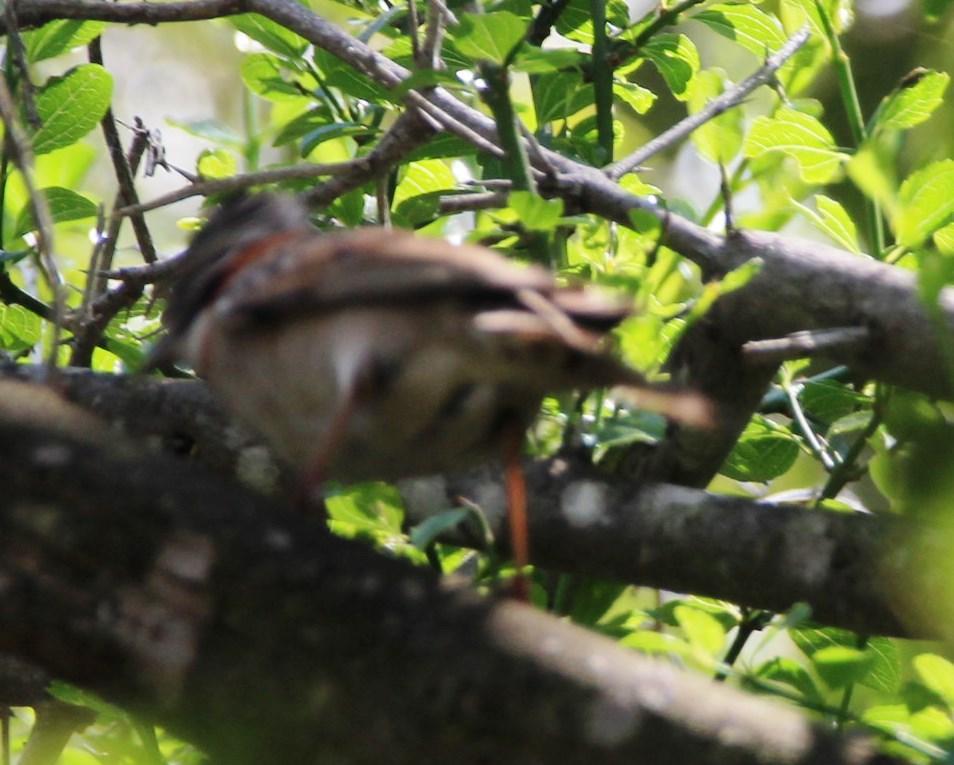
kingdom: Animalia
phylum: Chordata
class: Aves
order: Passeriformes
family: Passerellidae
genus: Zonotrichia
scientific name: Zonotrichia capensis
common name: Rufous-collared sparrow
